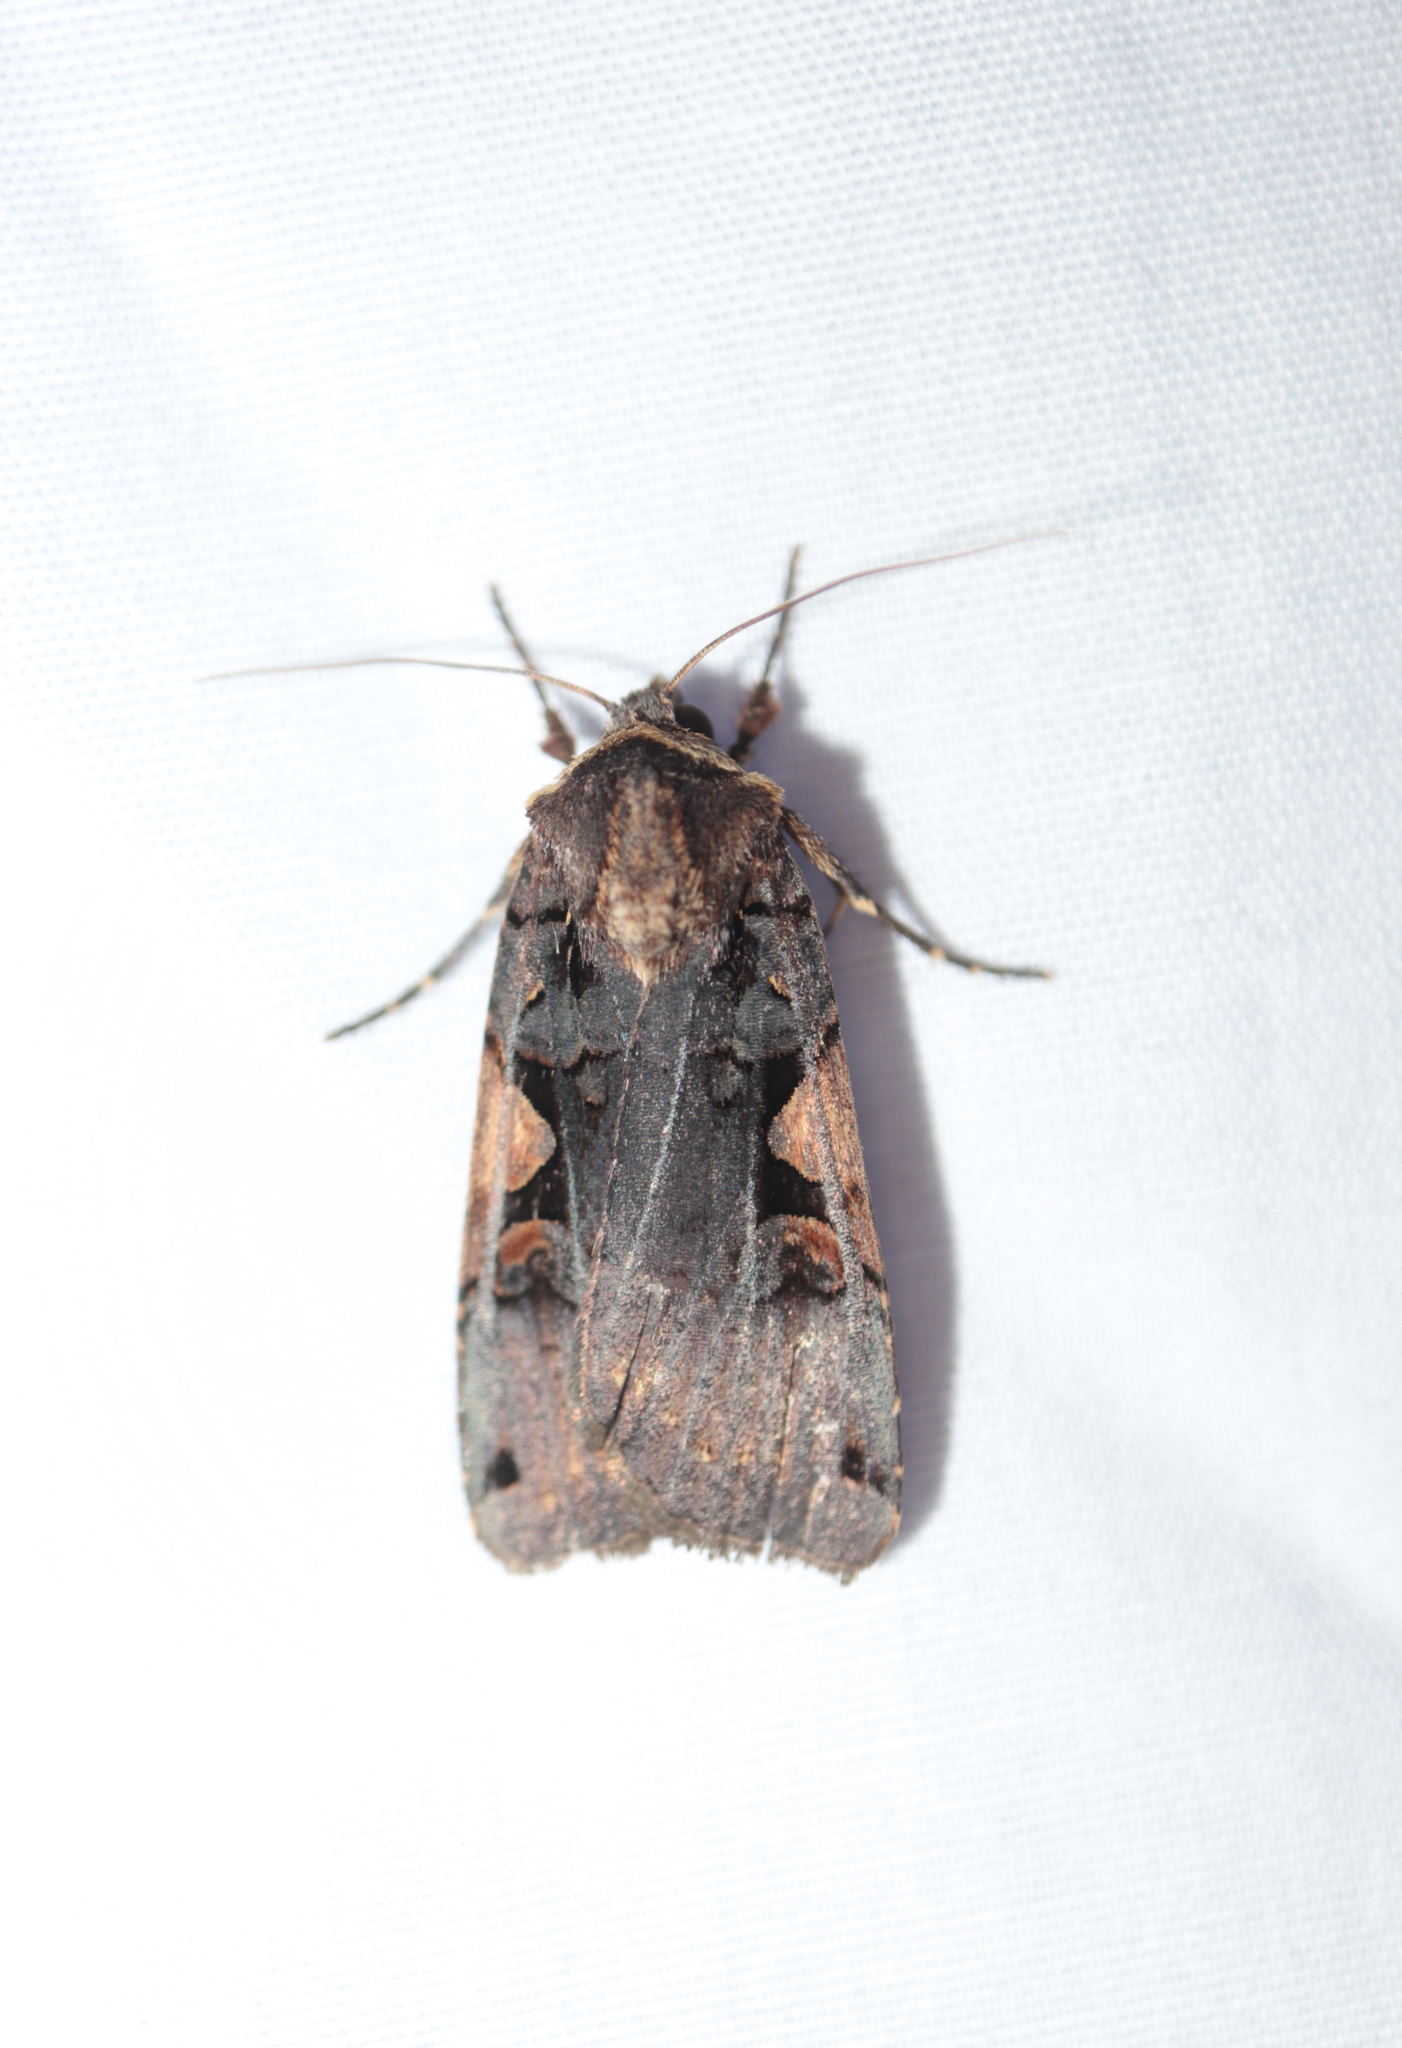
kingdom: Animalia
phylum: Arthropoda
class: Insecta
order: Lepidoptera
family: Noctuidae
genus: Xestia
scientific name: Xestia dolosa
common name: Cutworm moth
